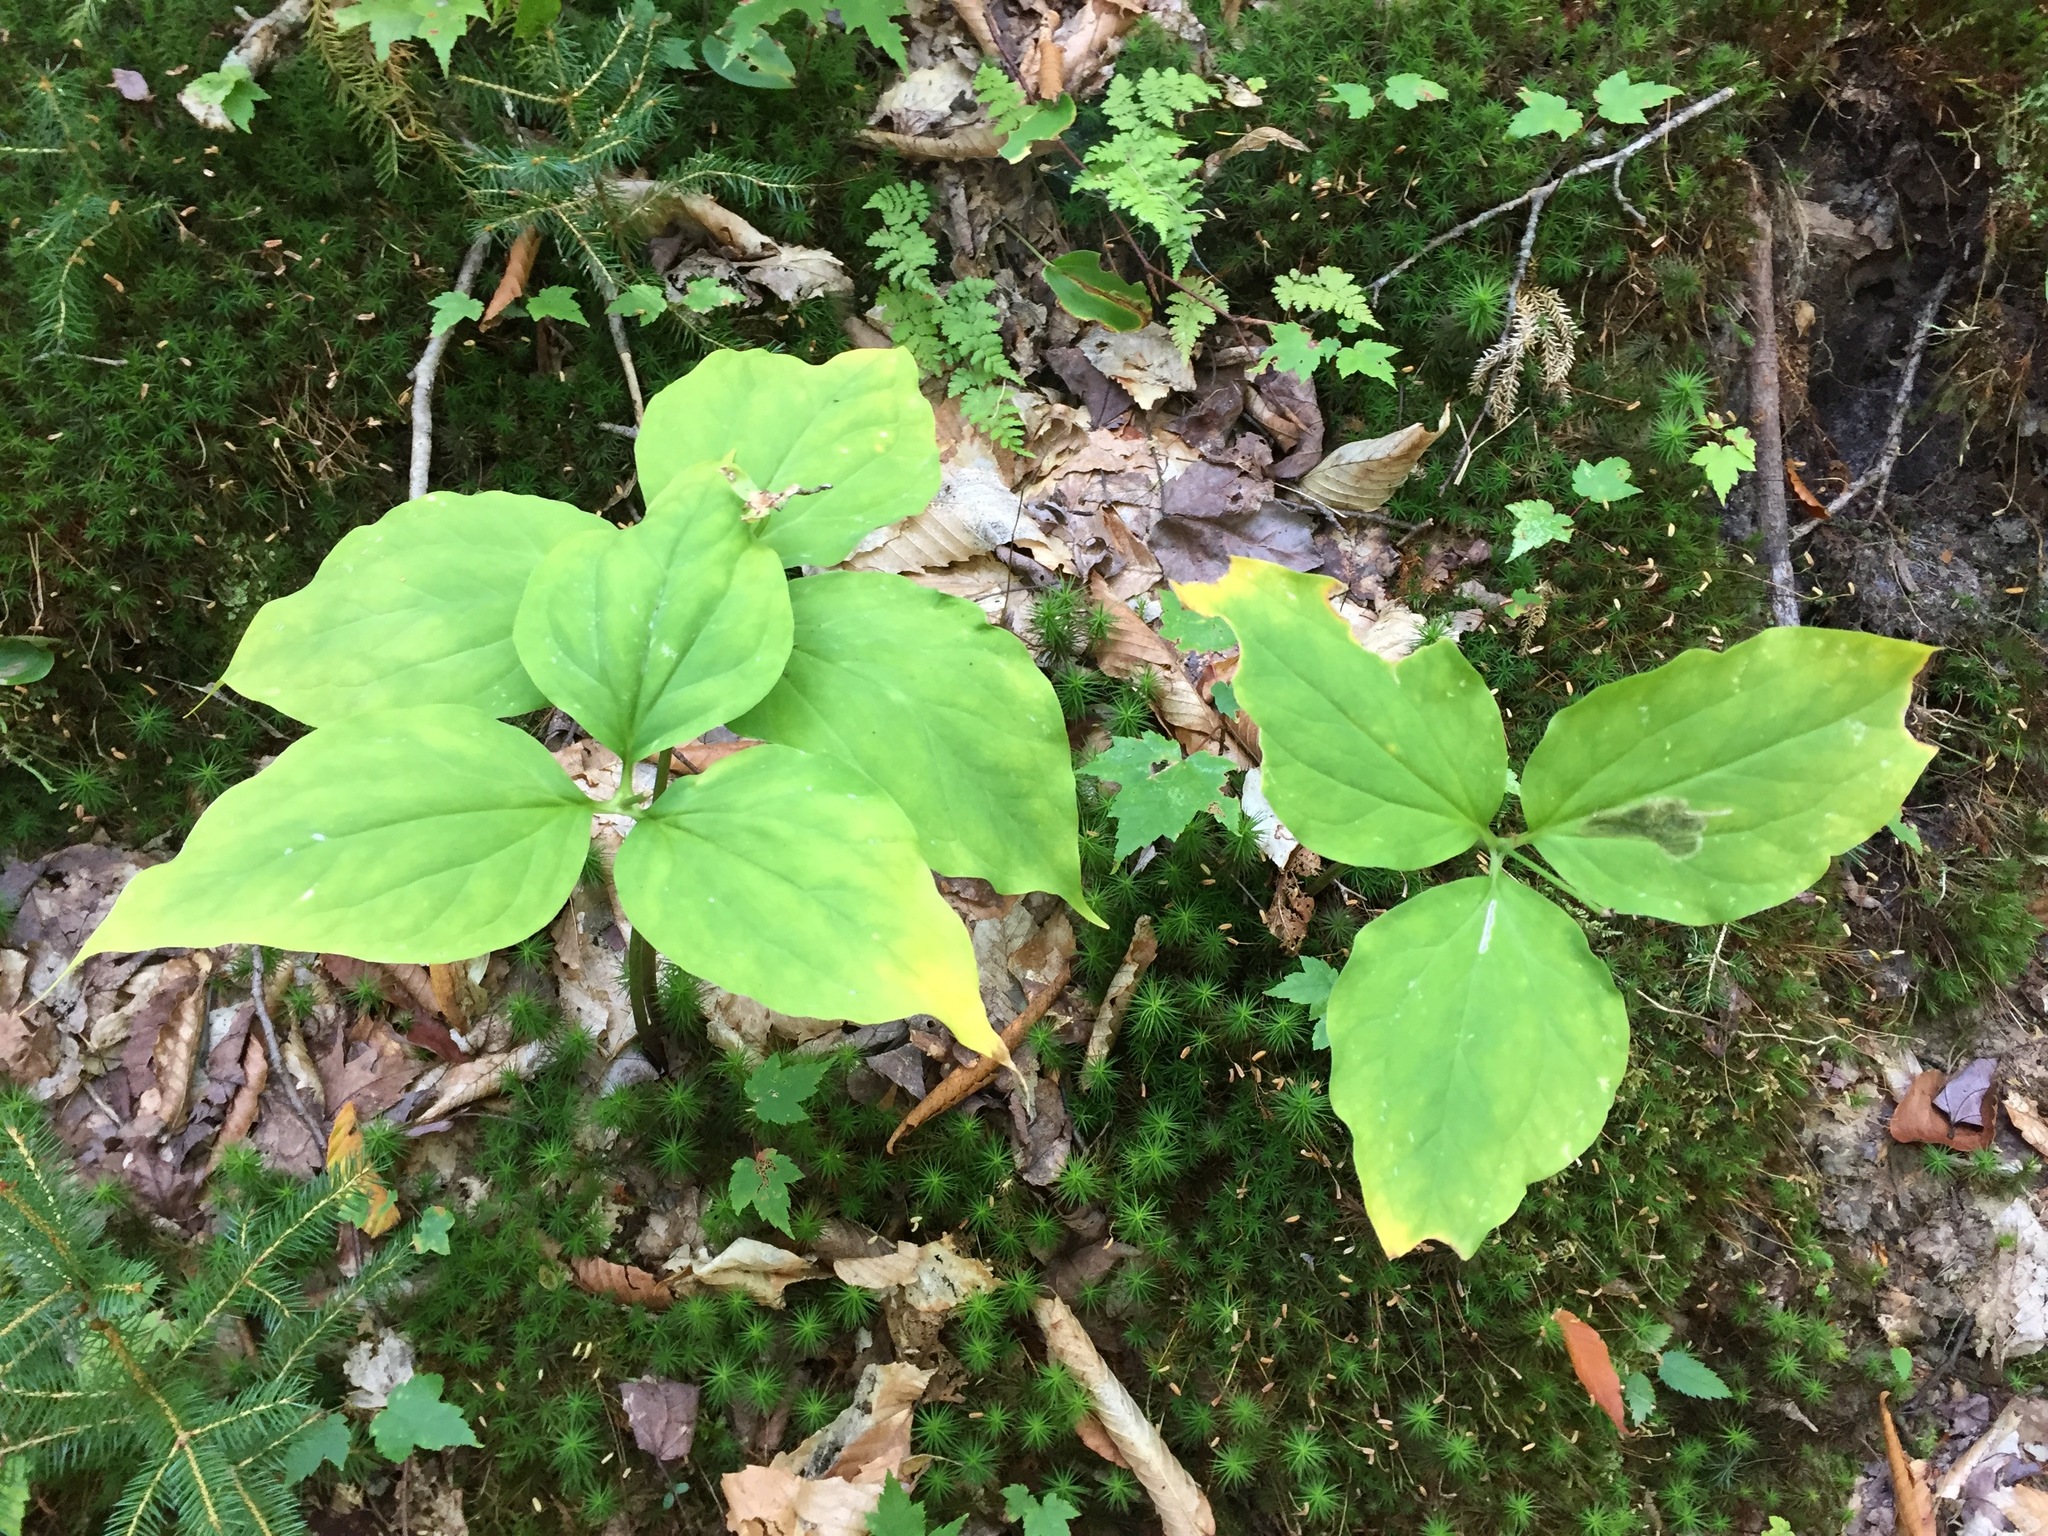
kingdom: Plantae
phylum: Tracheophyta
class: Liliopsida
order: Liliales
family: Melanthiaceae
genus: Trillium
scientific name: Trillium undulatum
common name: Paint trillium
